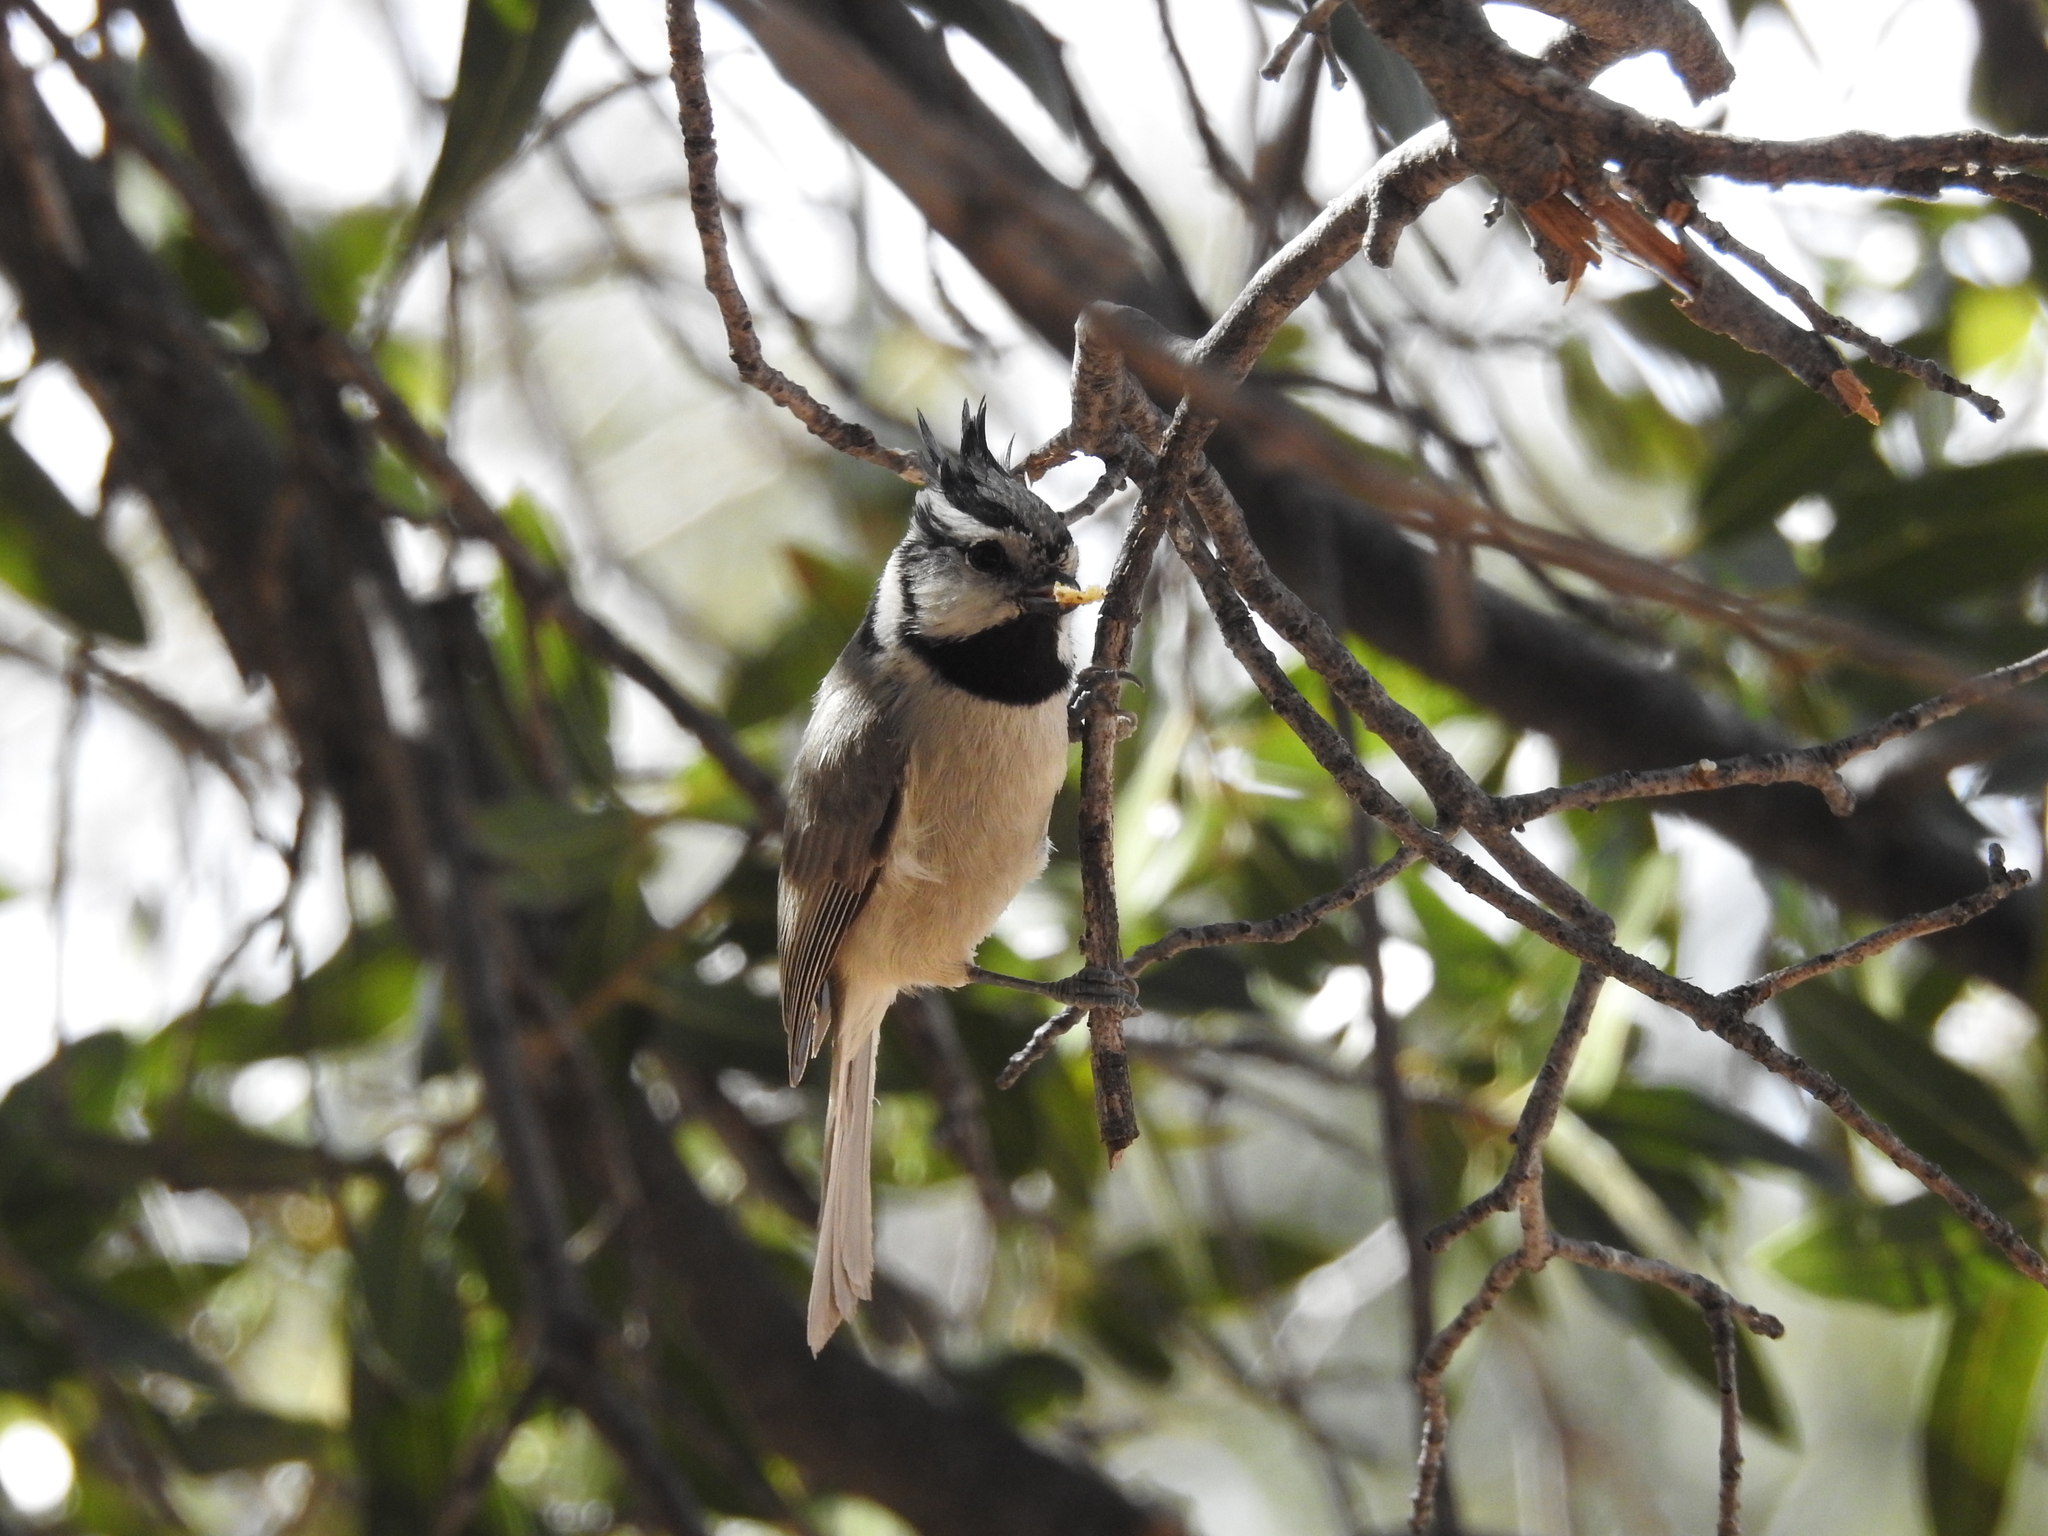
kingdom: Animalia
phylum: Chordata
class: Aves
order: Passeriformes
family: Paridae
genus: Baeolophus
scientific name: Baeolophus wollweberi
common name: Bridled titmouse
